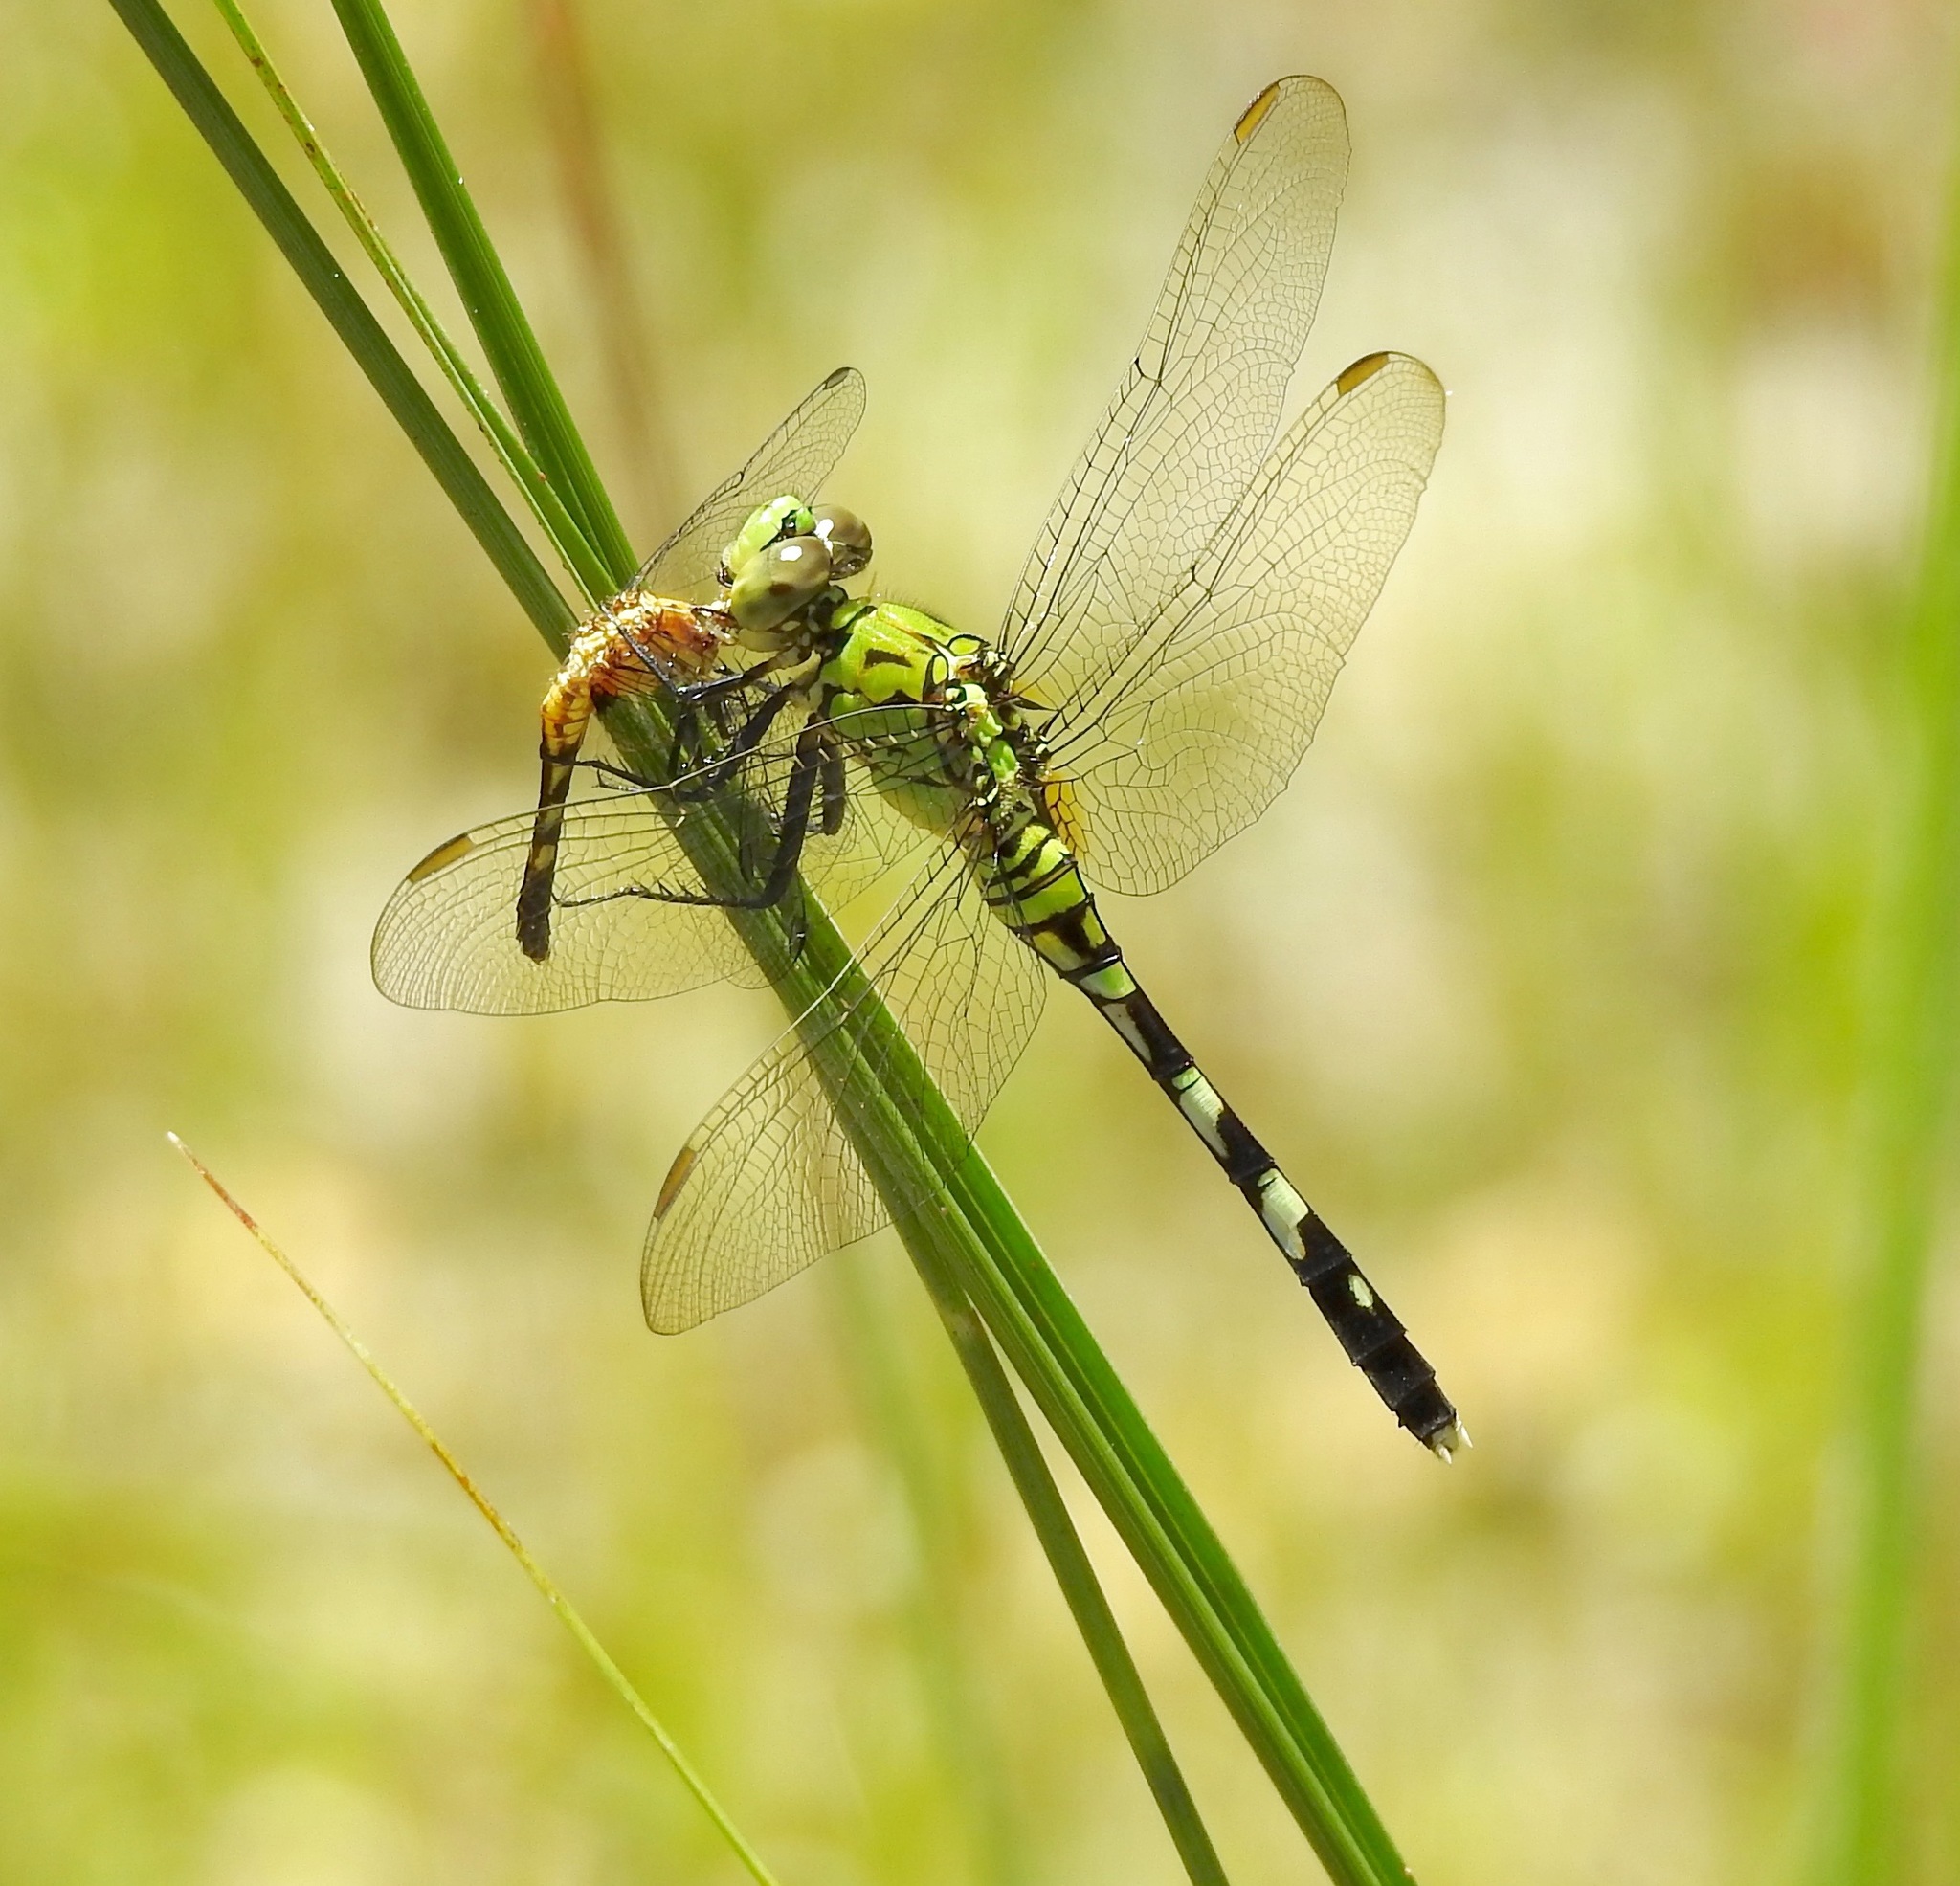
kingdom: Animalia
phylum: Arthropoda
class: Insecta
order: Odonata
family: Libellulidae
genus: Erythemis
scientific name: Erythemis simplicicollis
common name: Eastern pondhawk
